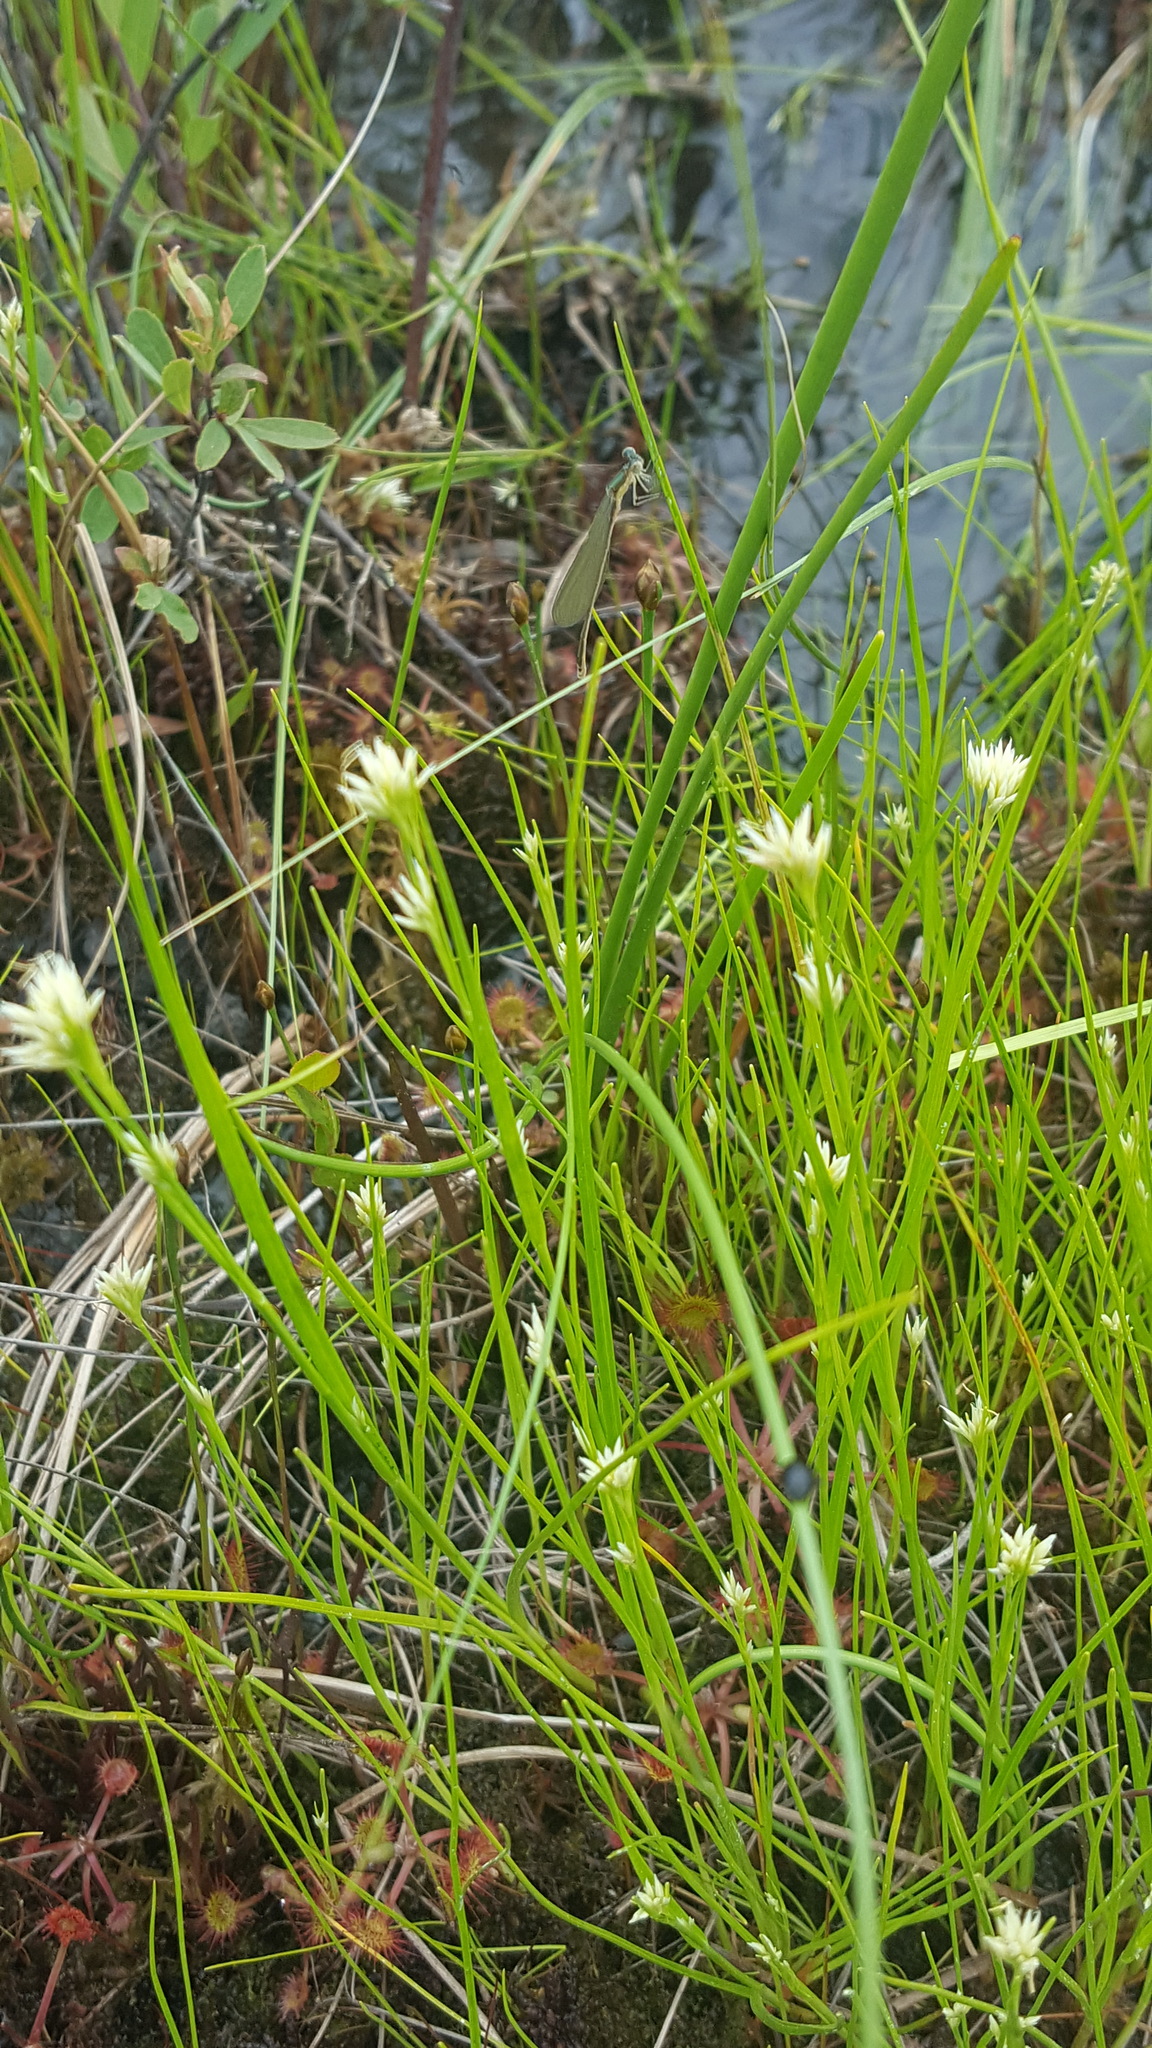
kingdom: Plantae
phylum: Tracheophyta
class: Liliopsida
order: Poales
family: Cyperaceae
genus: Rhynchospora
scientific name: Rhynchospora alba
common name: White beak-sedge
